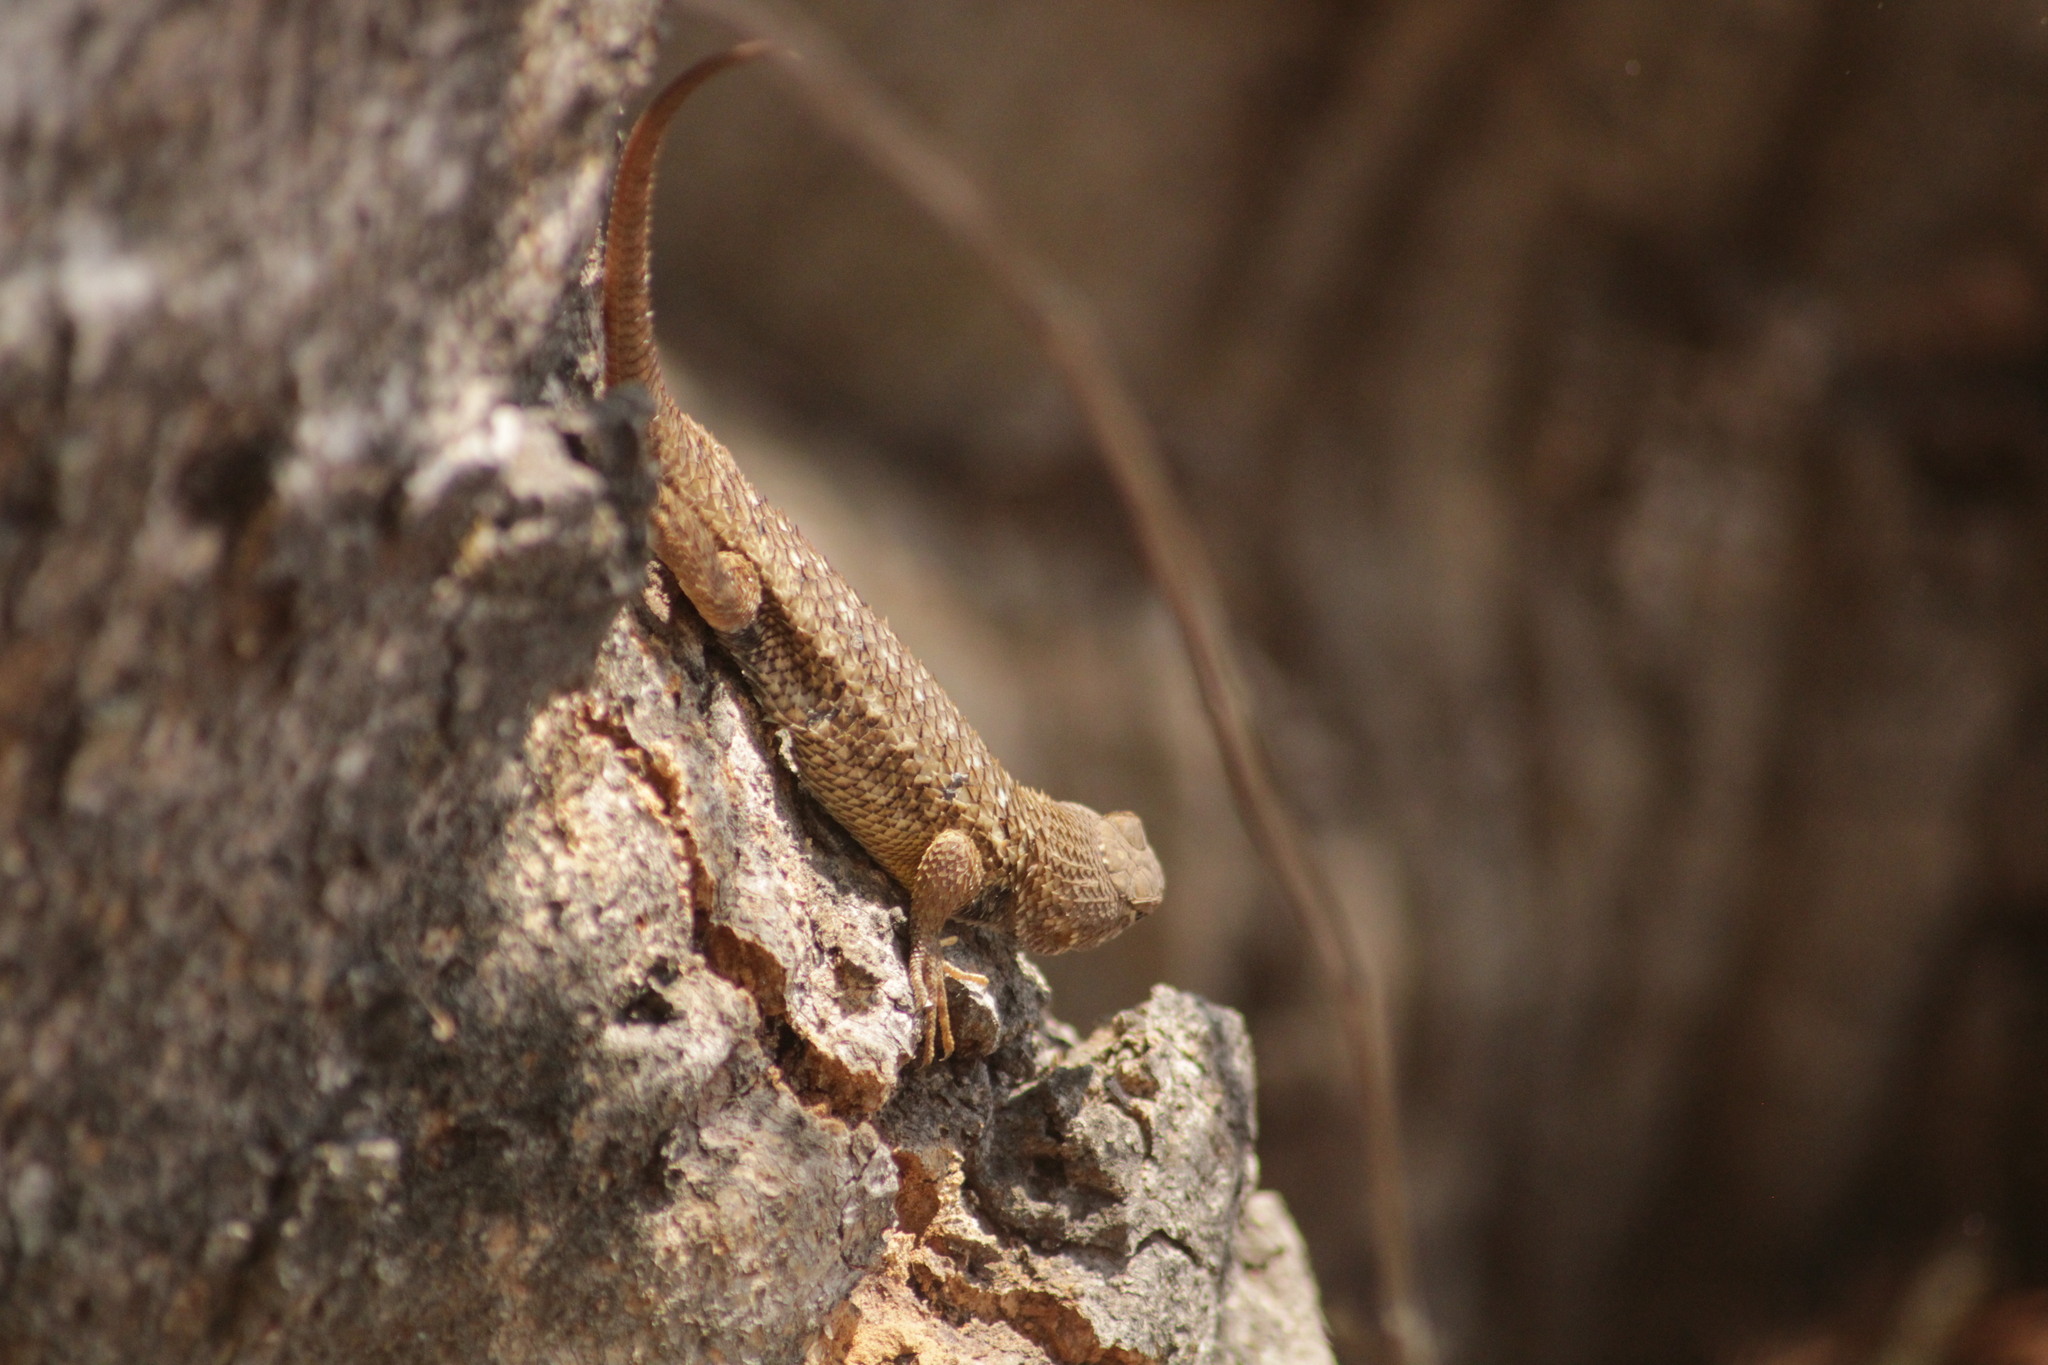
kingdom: Animalia
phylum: Chordata
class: Squamata
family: Phrynosomatidae
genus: Sceloporus
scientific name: Sceloporus horridus
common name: Few-pored rough lizard
